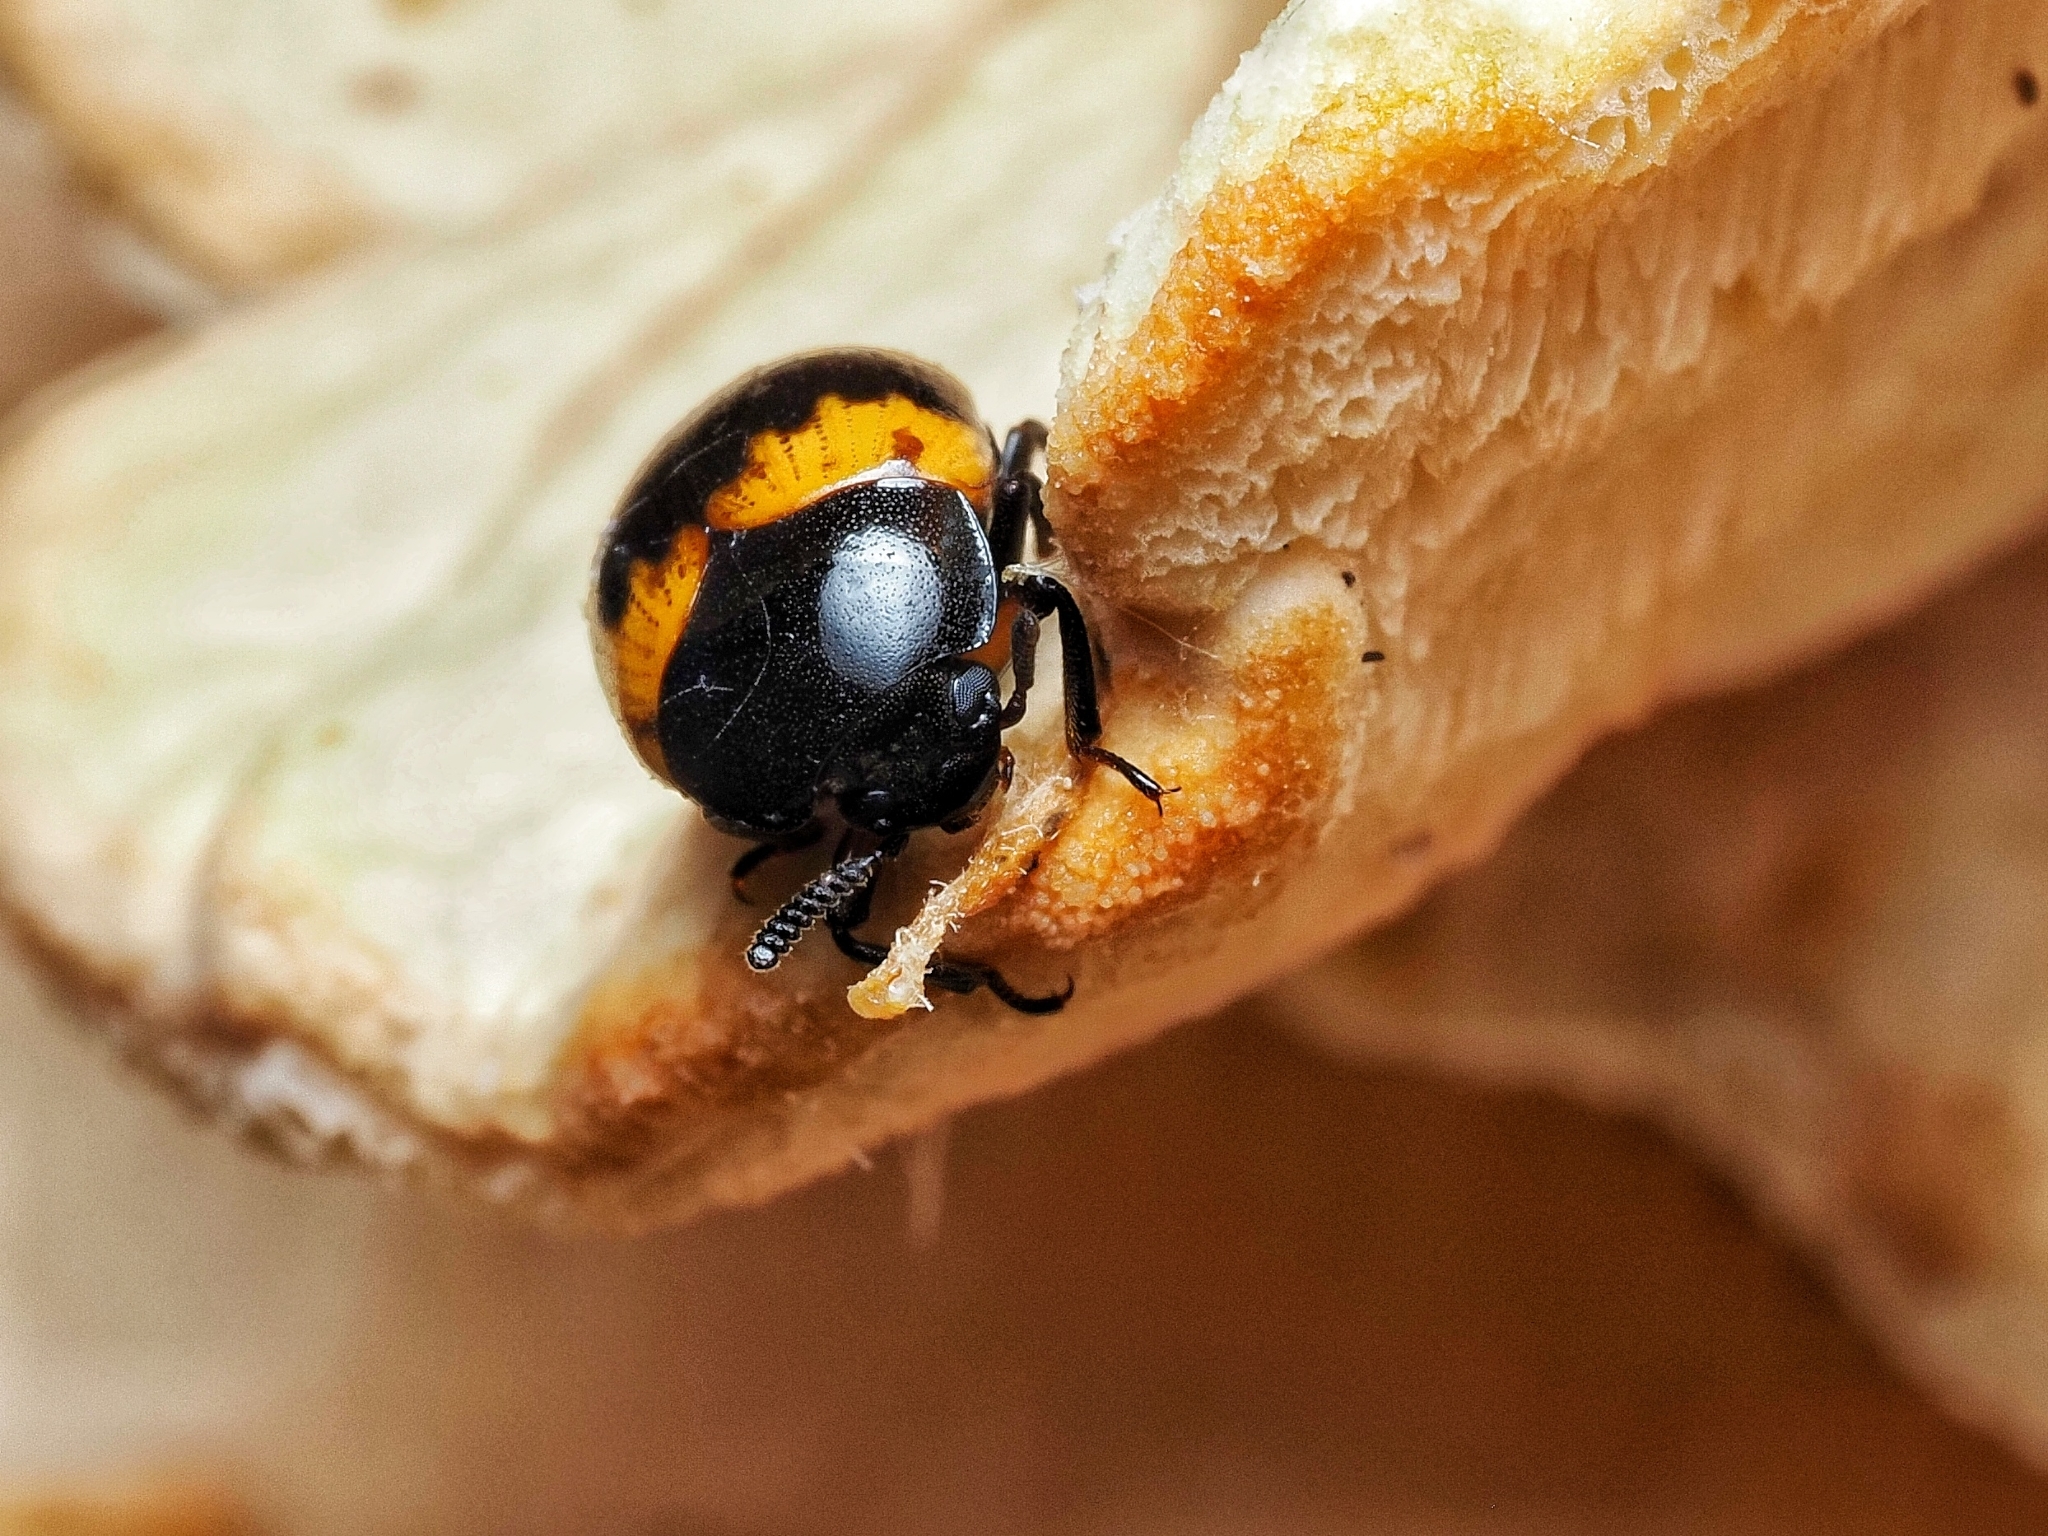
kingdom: Animalia
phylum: Arthropoda
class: Insecta
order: Coleoptera
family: Tenebrionidae
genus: Diaperis
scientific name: Diaperis boleti
